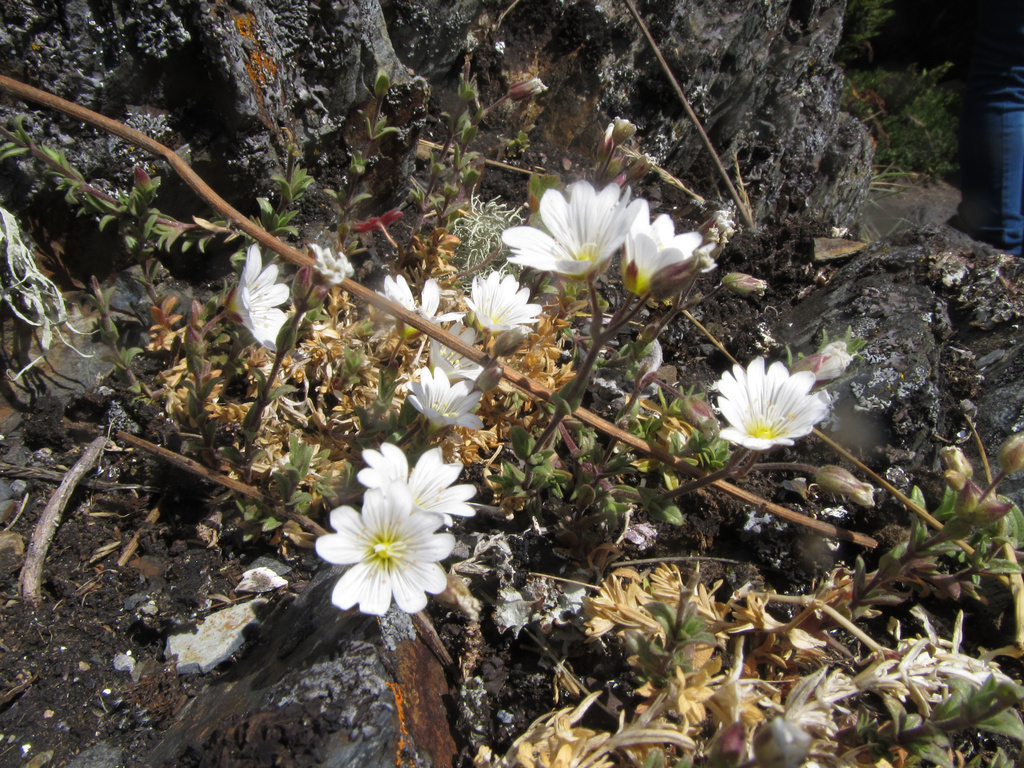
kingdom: Plantae
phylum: Tracheophyta
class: Magnoliopsida
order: Caryophyllales
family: Caryophyllaceae
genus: Cerastium
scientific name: Cerastium arvense
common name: Field mouse-ear
